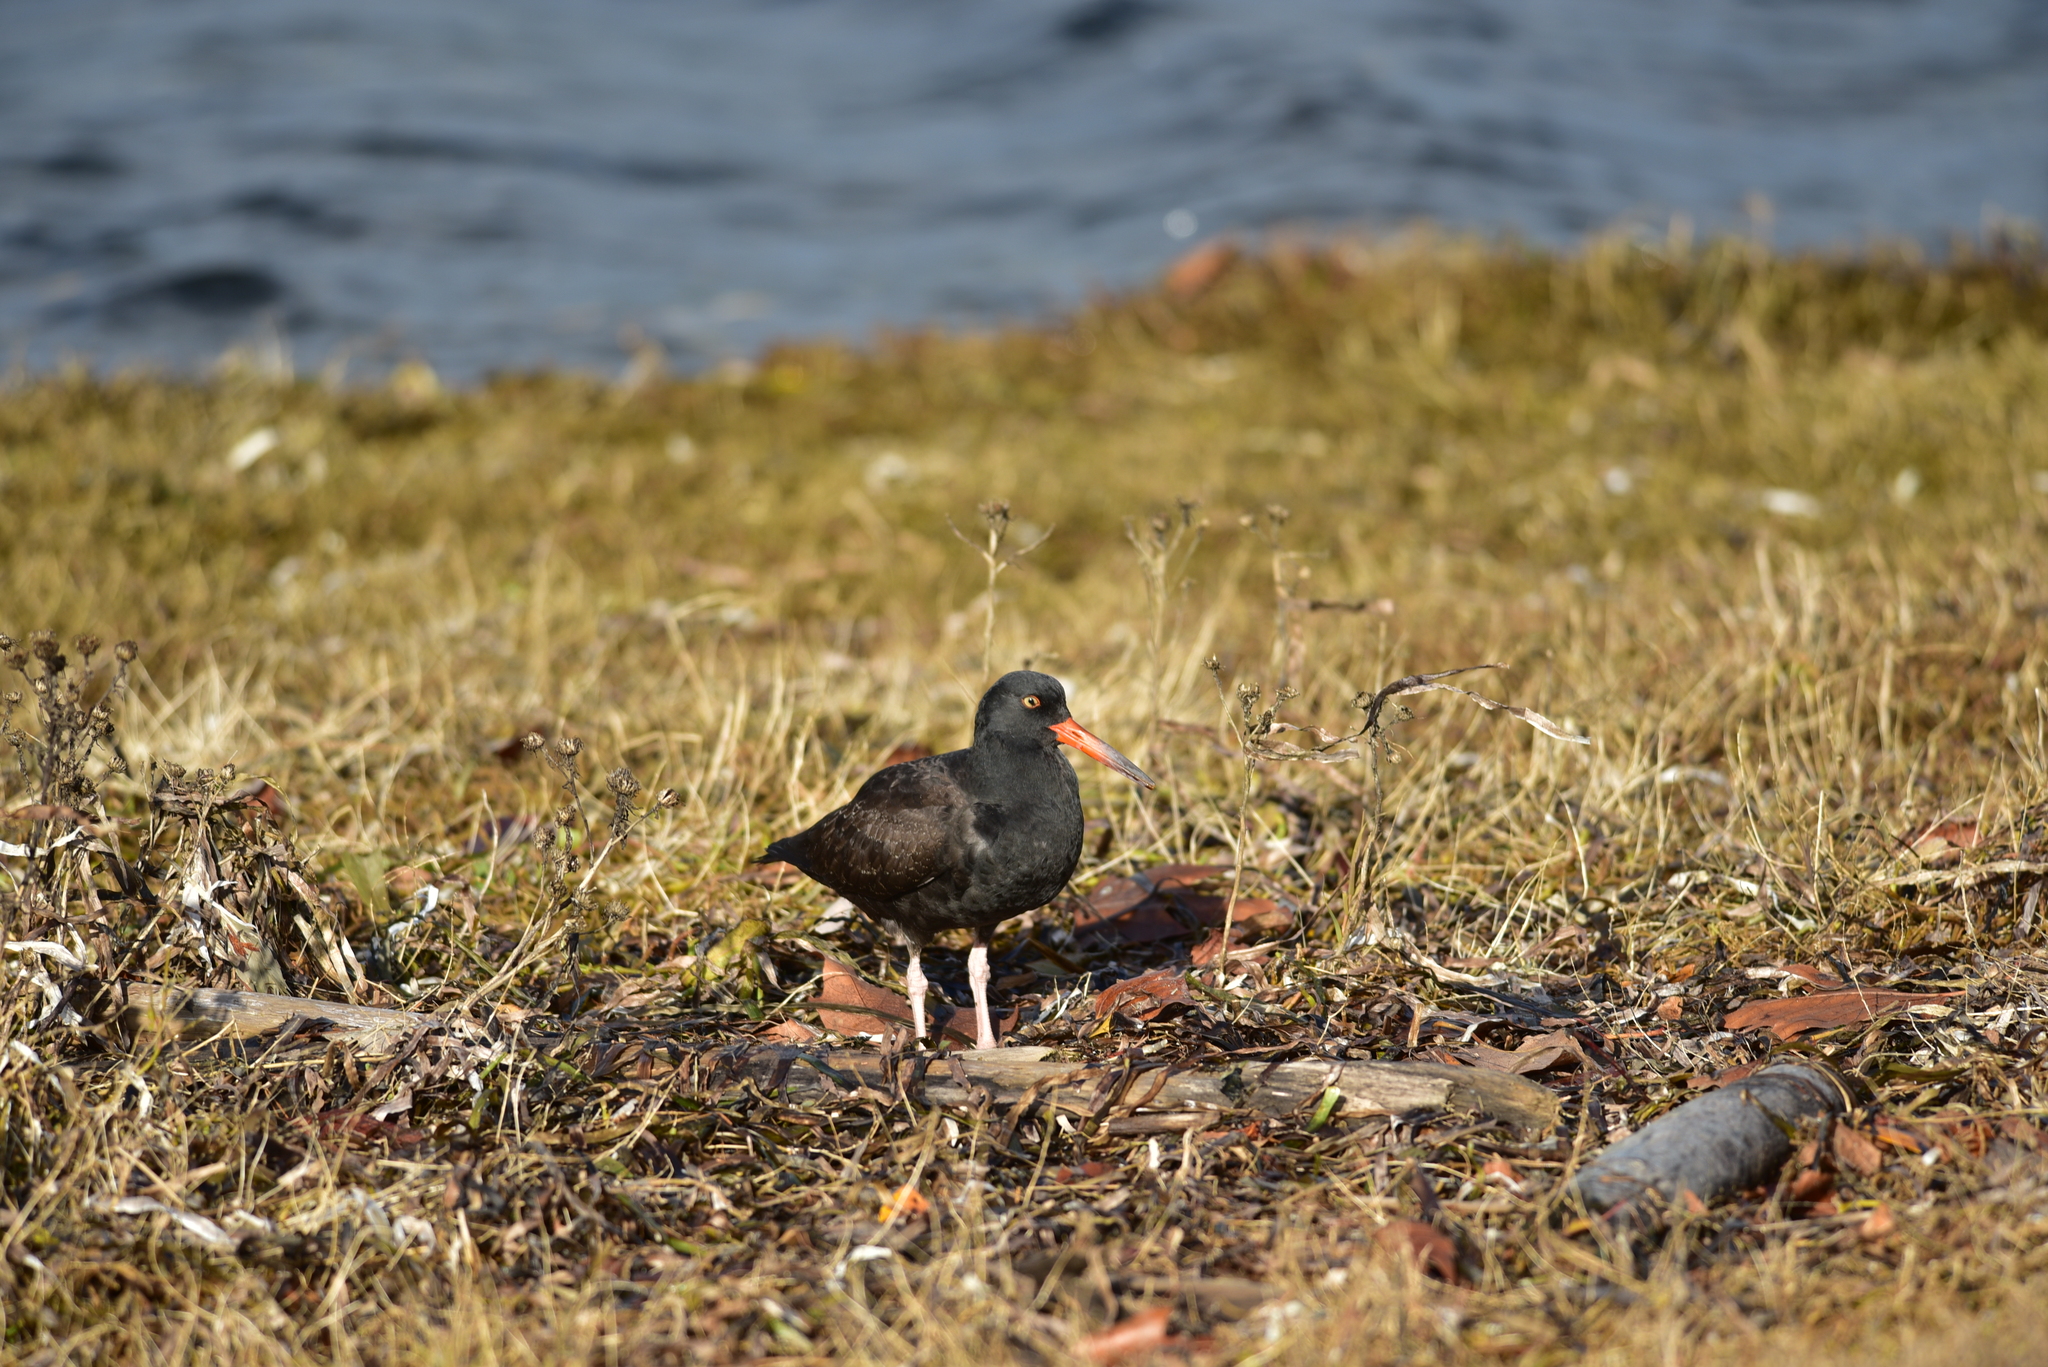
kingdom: Animalia
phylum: Chordata
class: Aves
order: Charadriiformes
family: Haematopodidae
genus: Haematopus
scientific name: Haematopus bachmani
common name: Black oystercatcher
